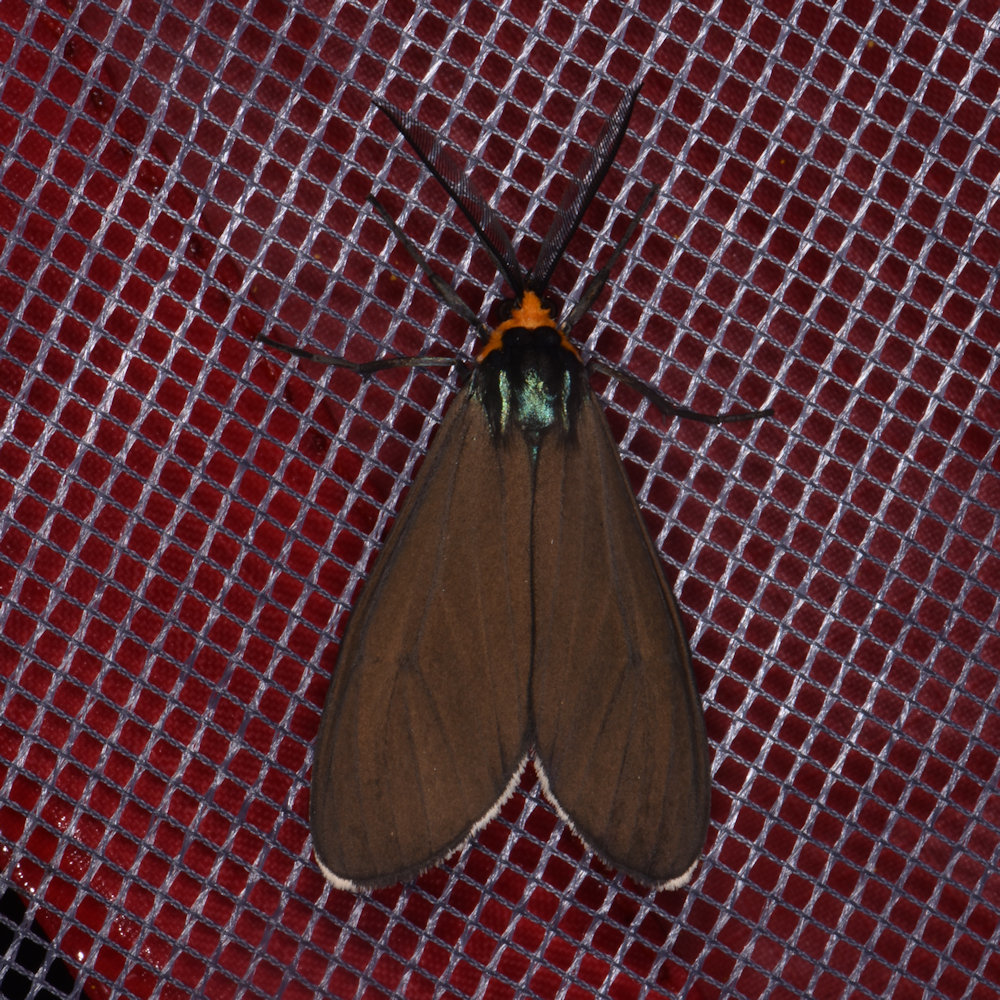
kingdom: Animalia
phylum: Arthropoda
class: Insecta
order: Lepidoptera
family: Erebidae
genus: Ctenucha
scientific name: Ctenucha virginica
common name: Virginia ctenucha moth
